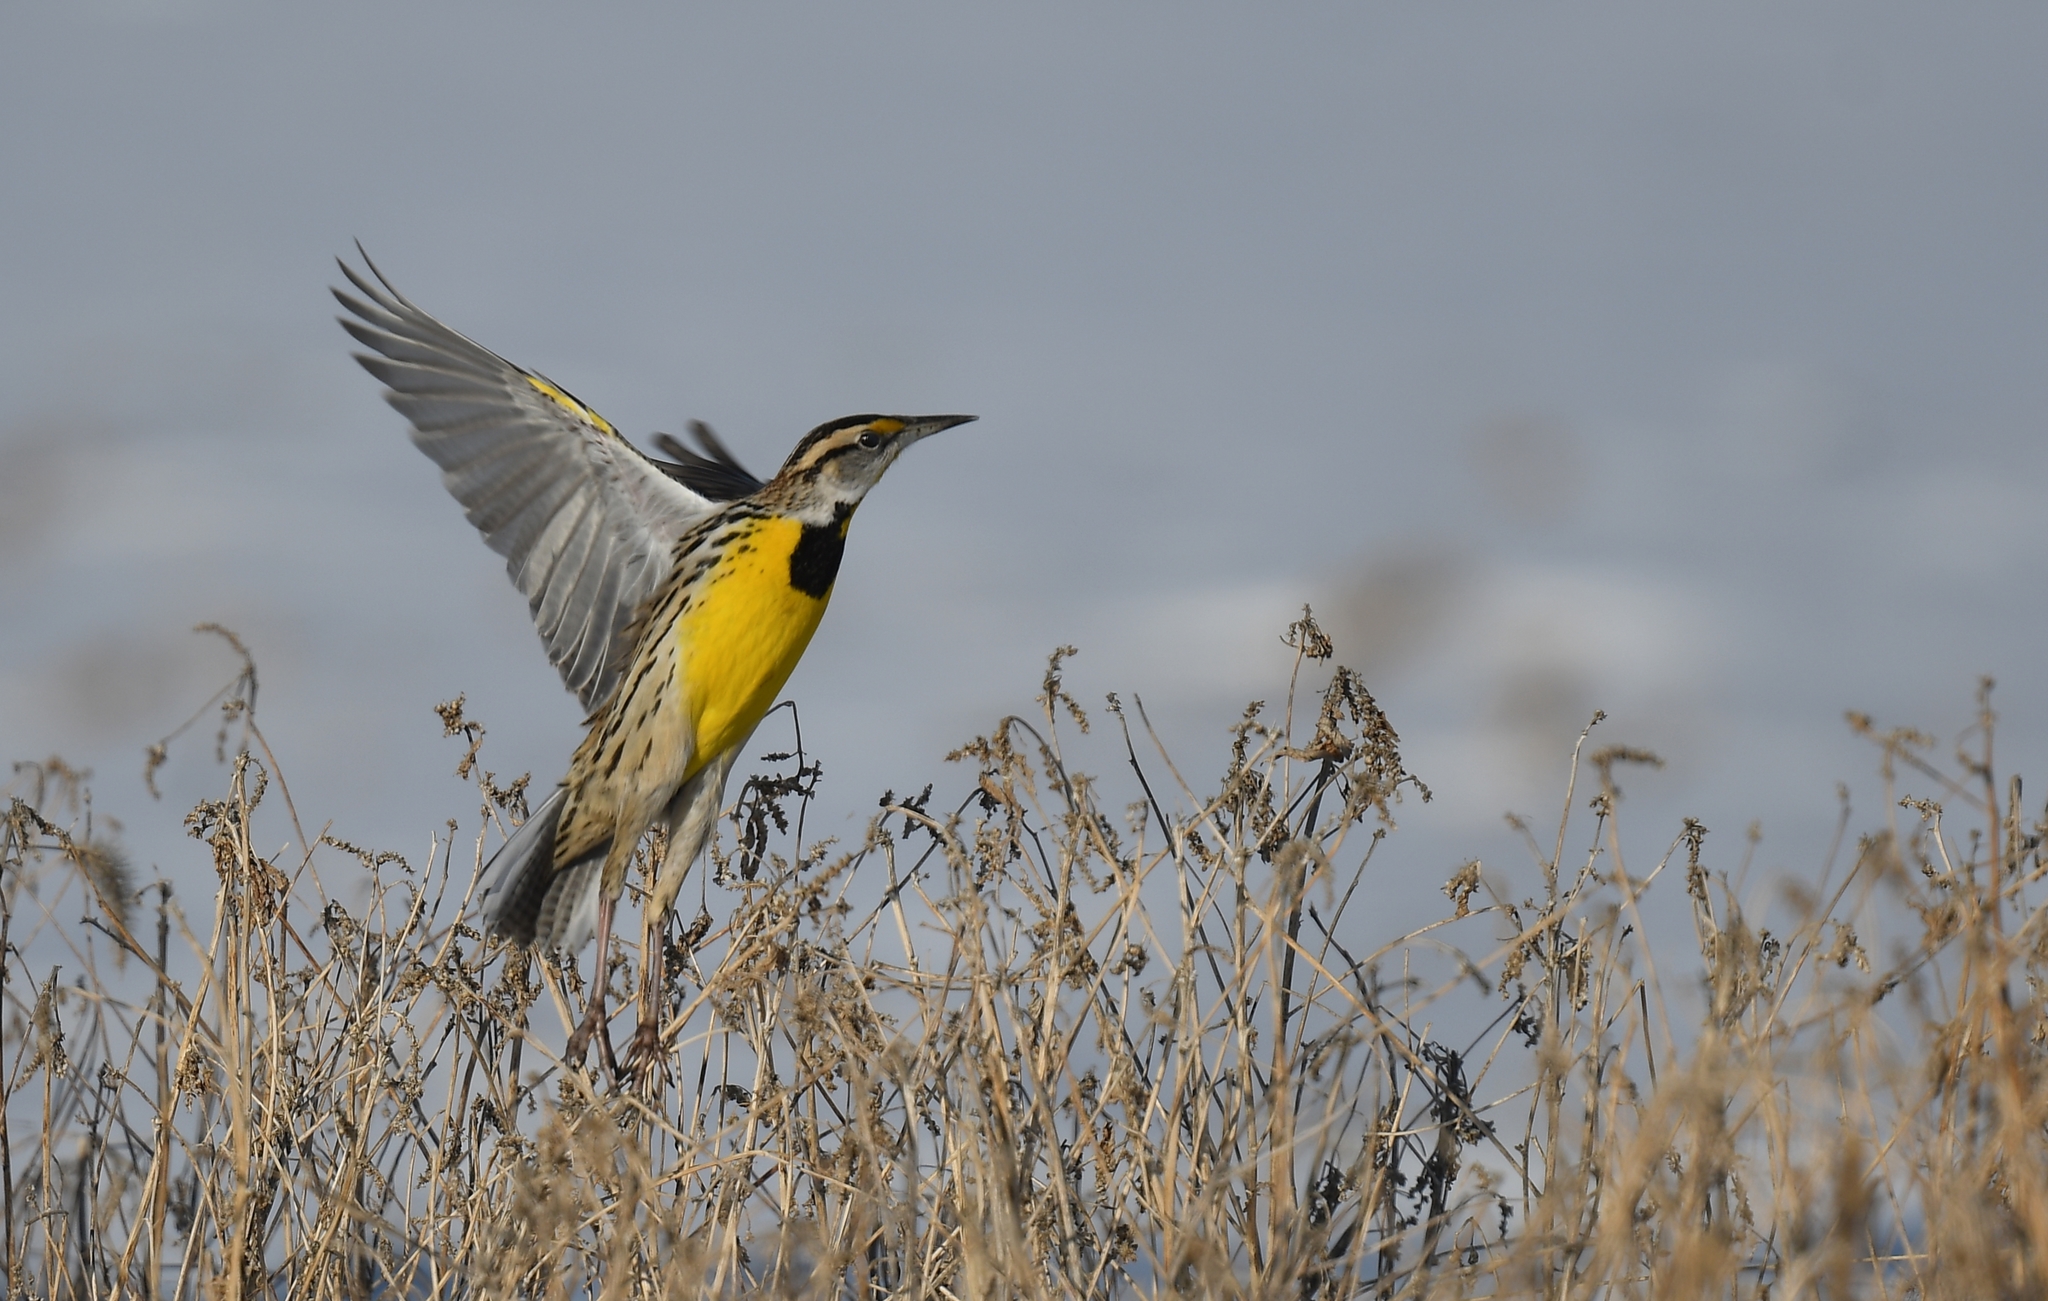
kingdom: Animalia
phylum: Chordata
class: Aves
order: Passeriformes
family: Icteridae
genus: Sturnella
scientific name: Sturnella magna
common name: Eastern meadowlark
